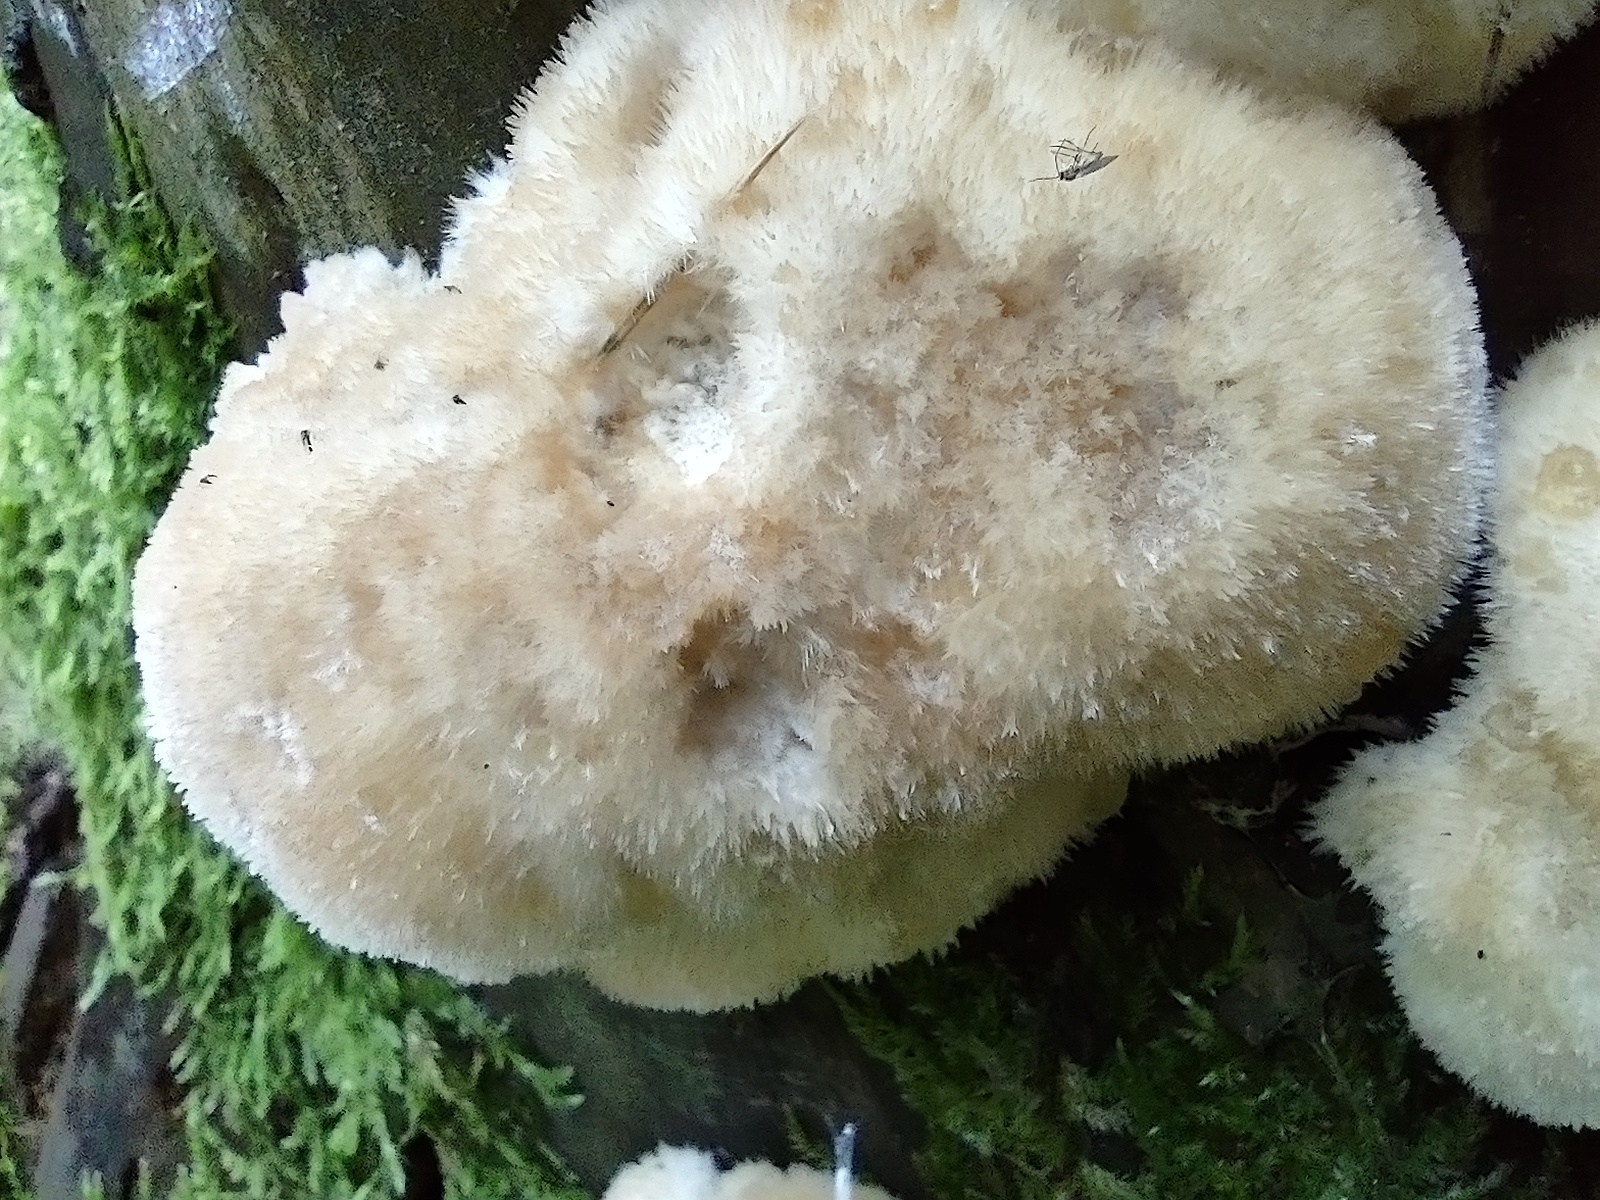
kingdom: Fungi
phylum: Basidiomycota
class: Agaricomycetes
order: Polyporales
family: Dacryobolaceae
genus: Postia
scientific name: Postia ptychogaster
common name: Powderpuff bracket
